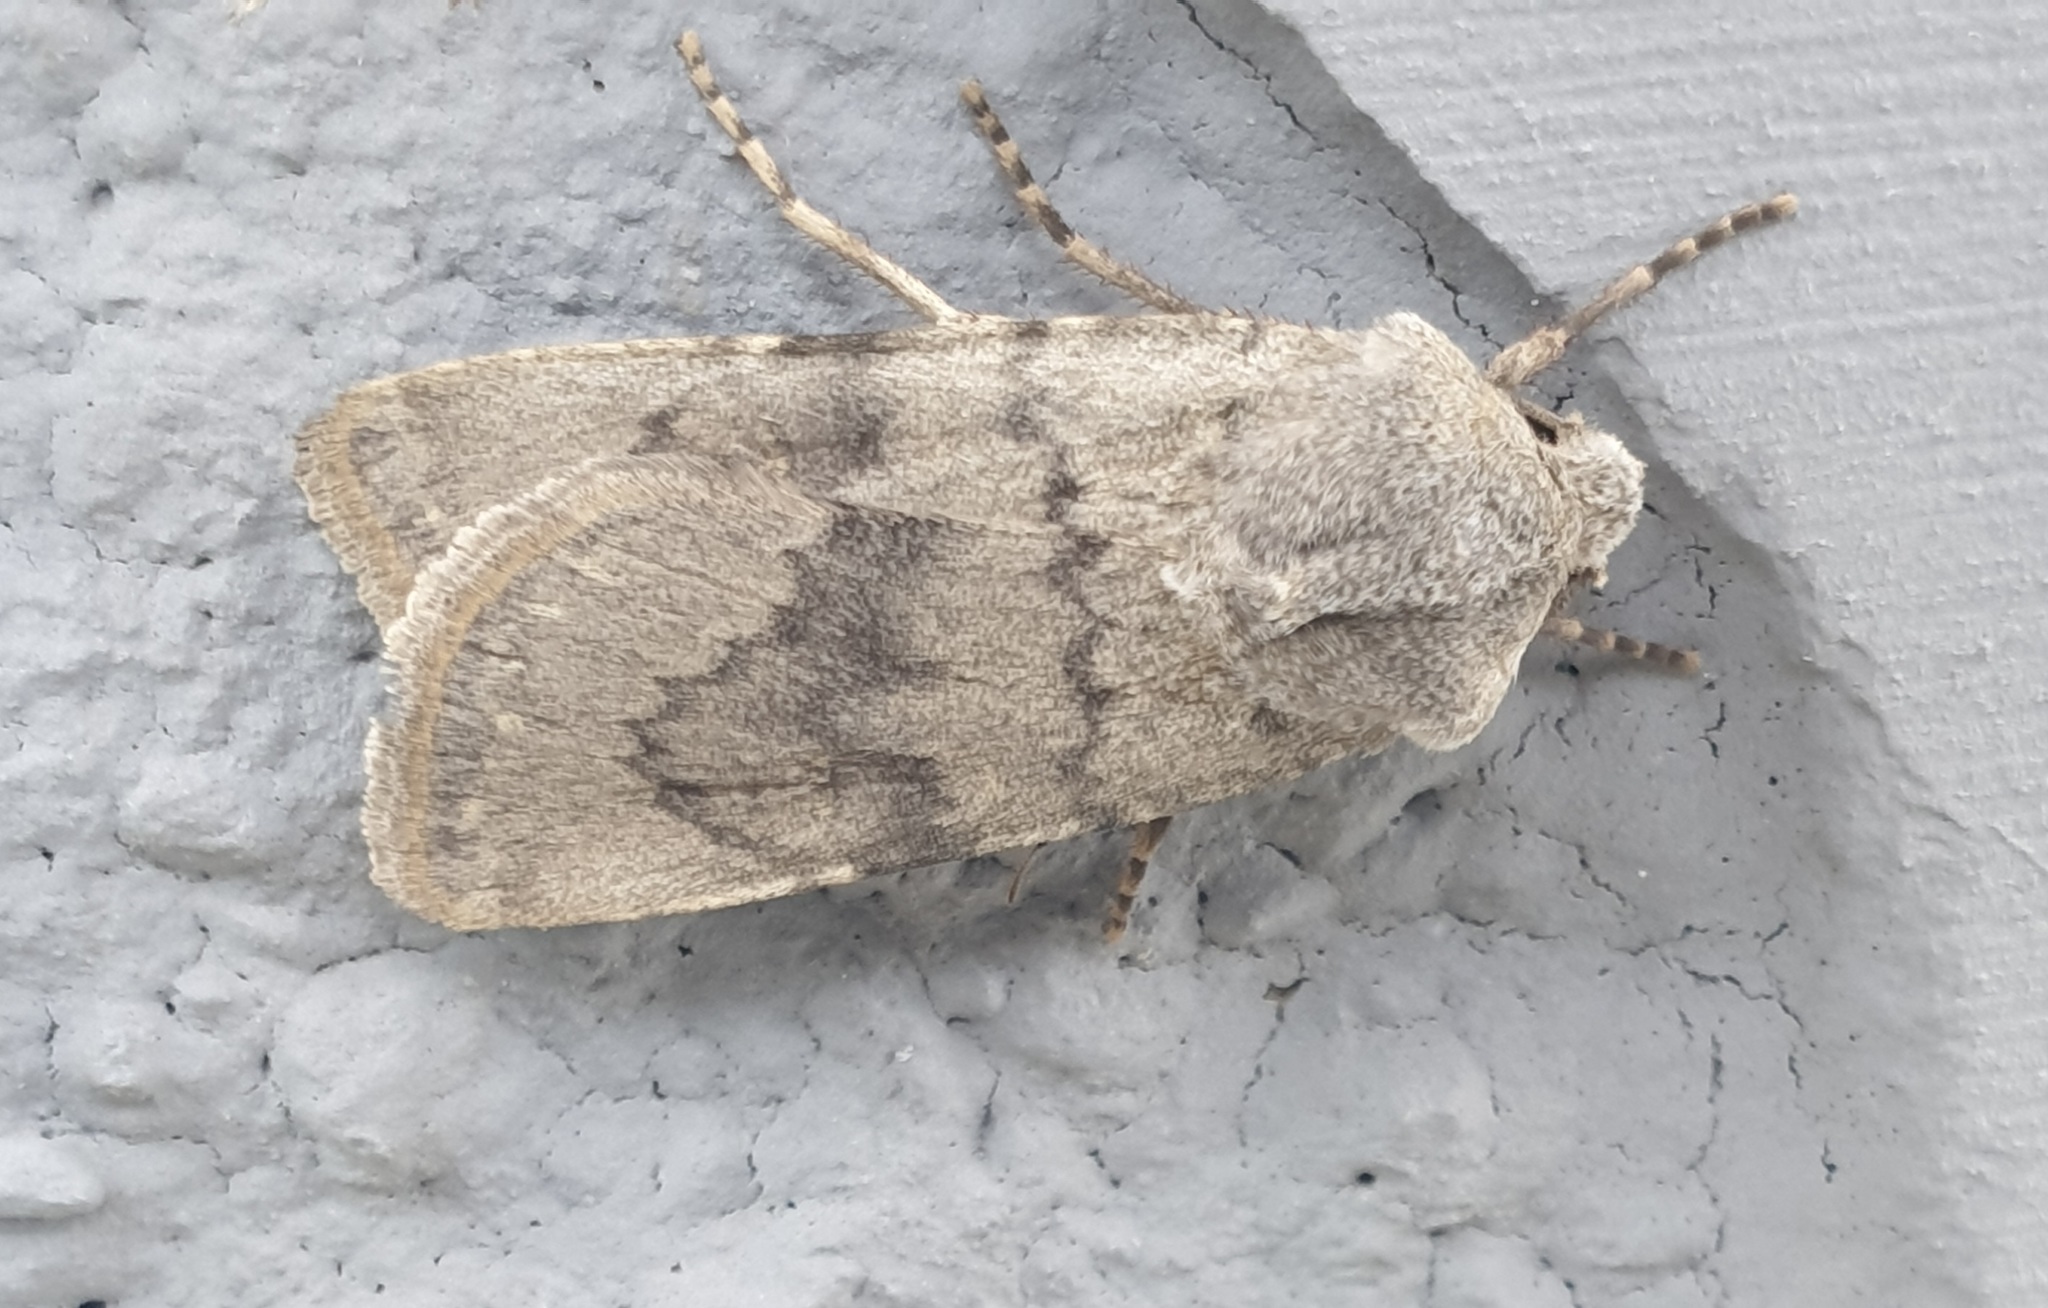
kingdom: Animalia
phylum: Arthropoda
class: Insecta
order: Lepidoptera
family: Noctuidae
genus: Euxoa
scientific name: Euxoa decora
